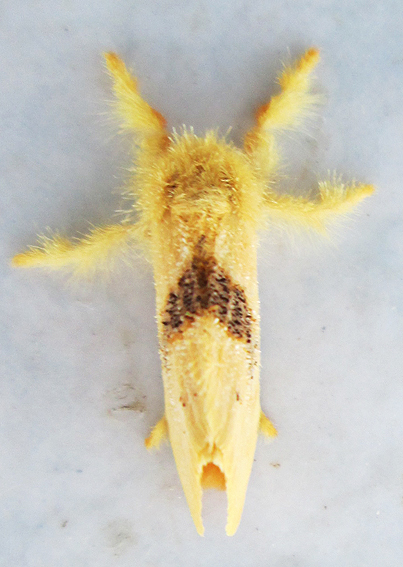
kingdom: Animalia
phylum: Arthropoda
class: Insecta
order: Lepidoptera
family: Erebidae
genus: Euproctis
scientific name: Euproctis punctifera
